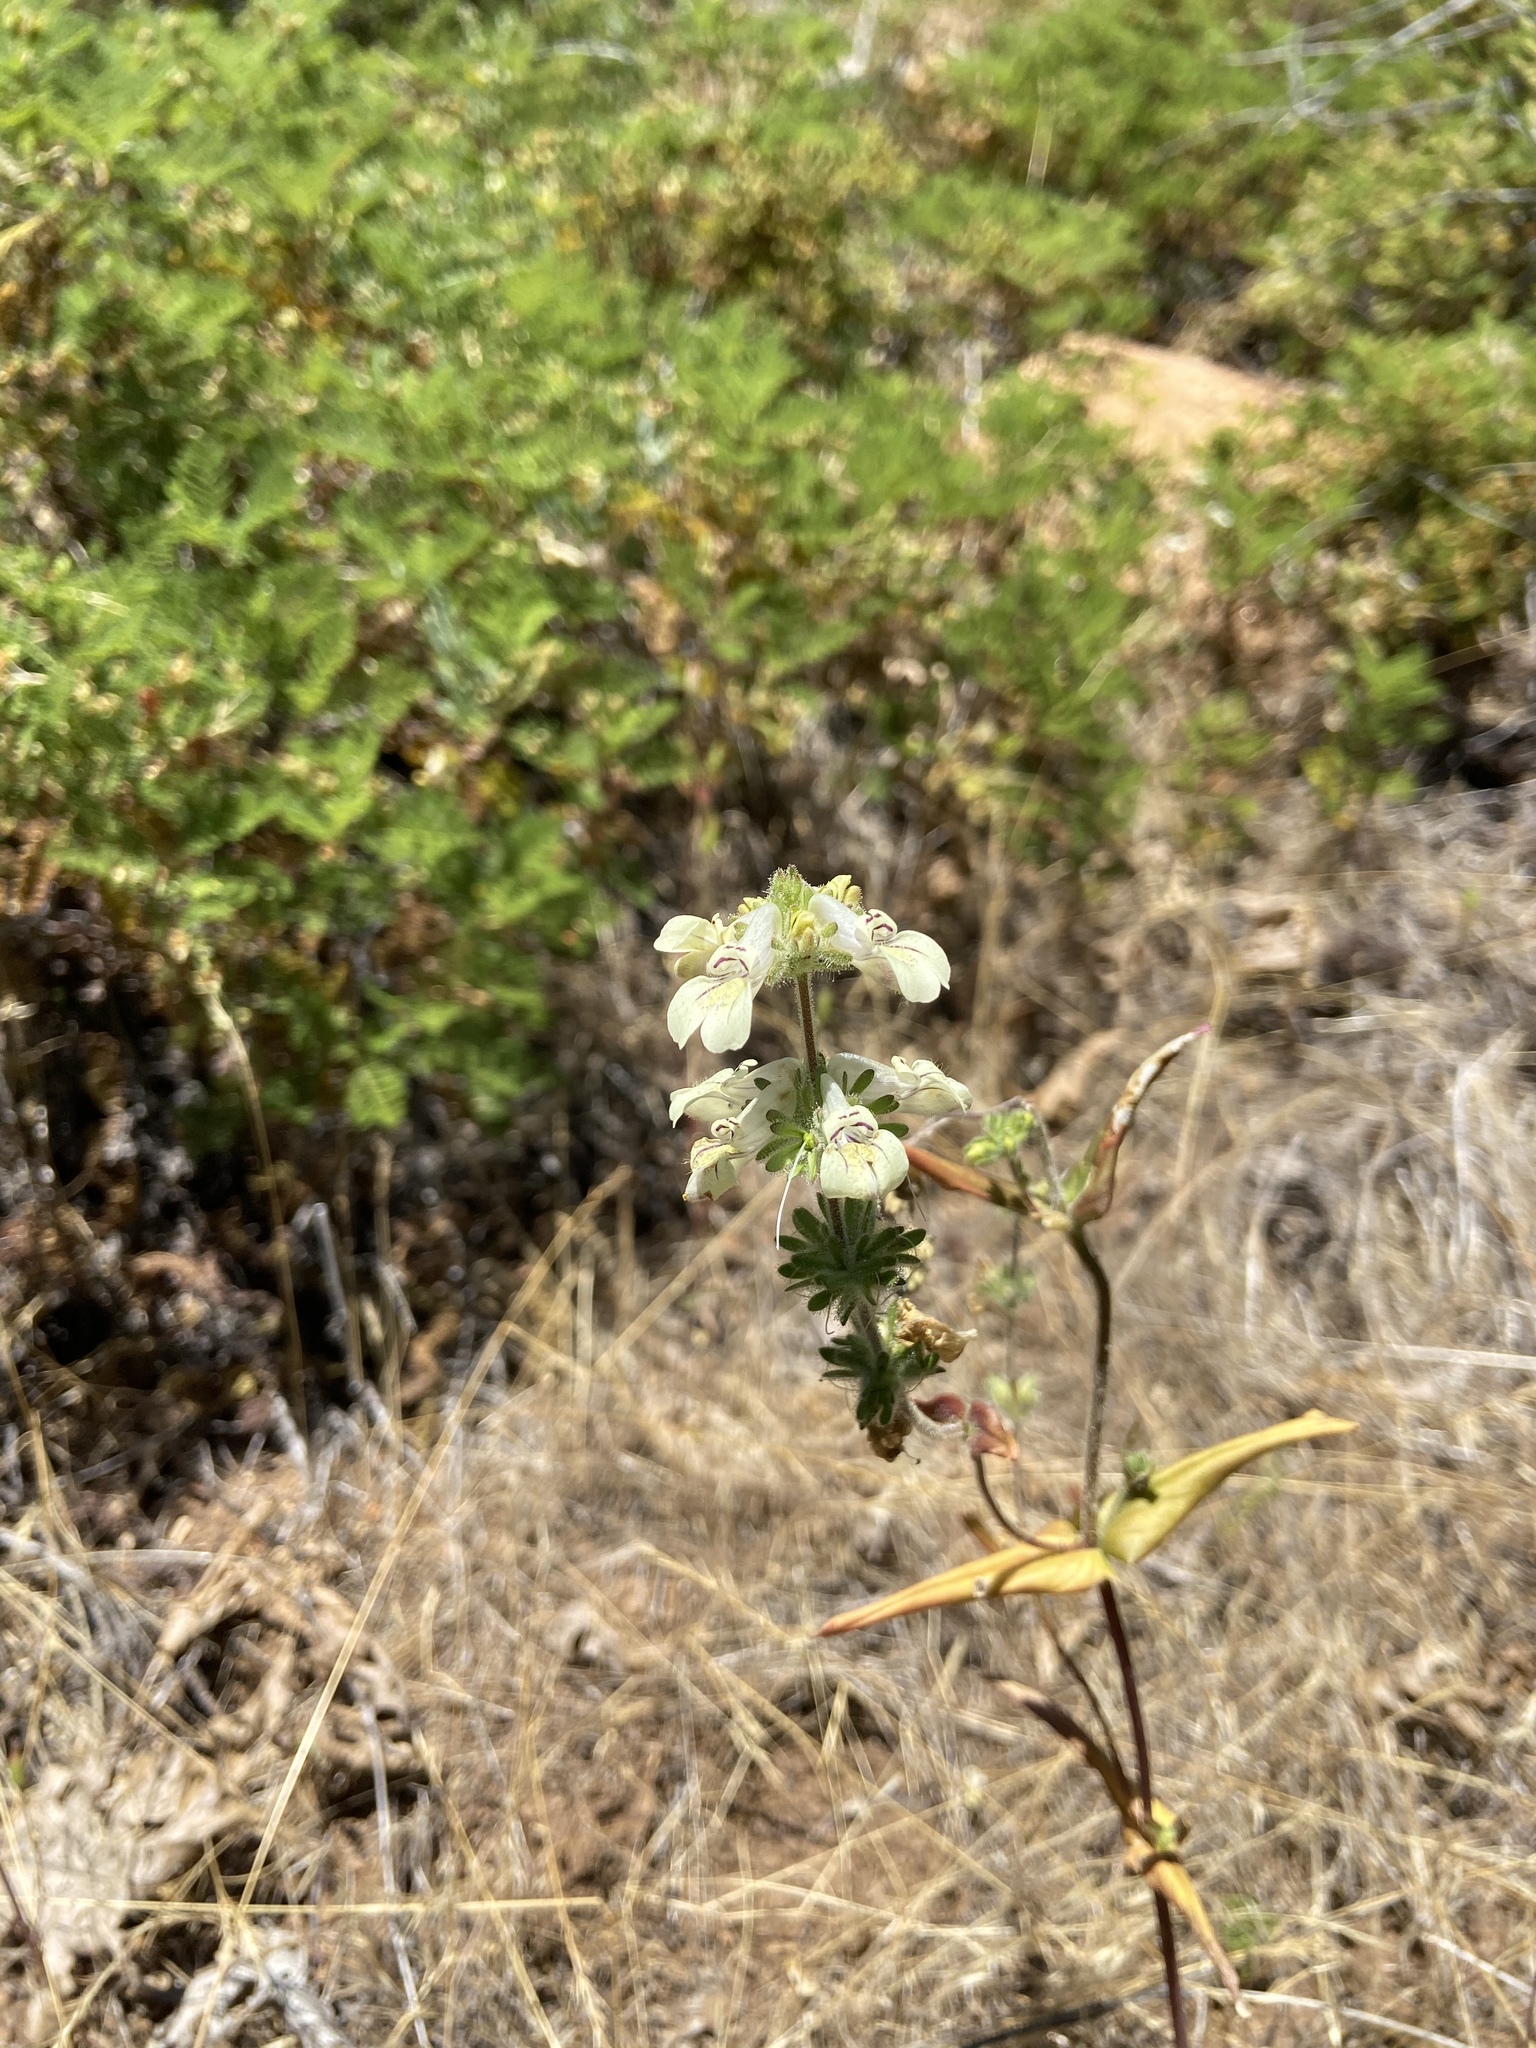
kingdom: Plantae
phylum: Tracheophyta
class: Magnoliopsida
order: Lamiales
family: Plantaginaceae
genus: Collinsia
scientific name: Collinsia tinctoria
